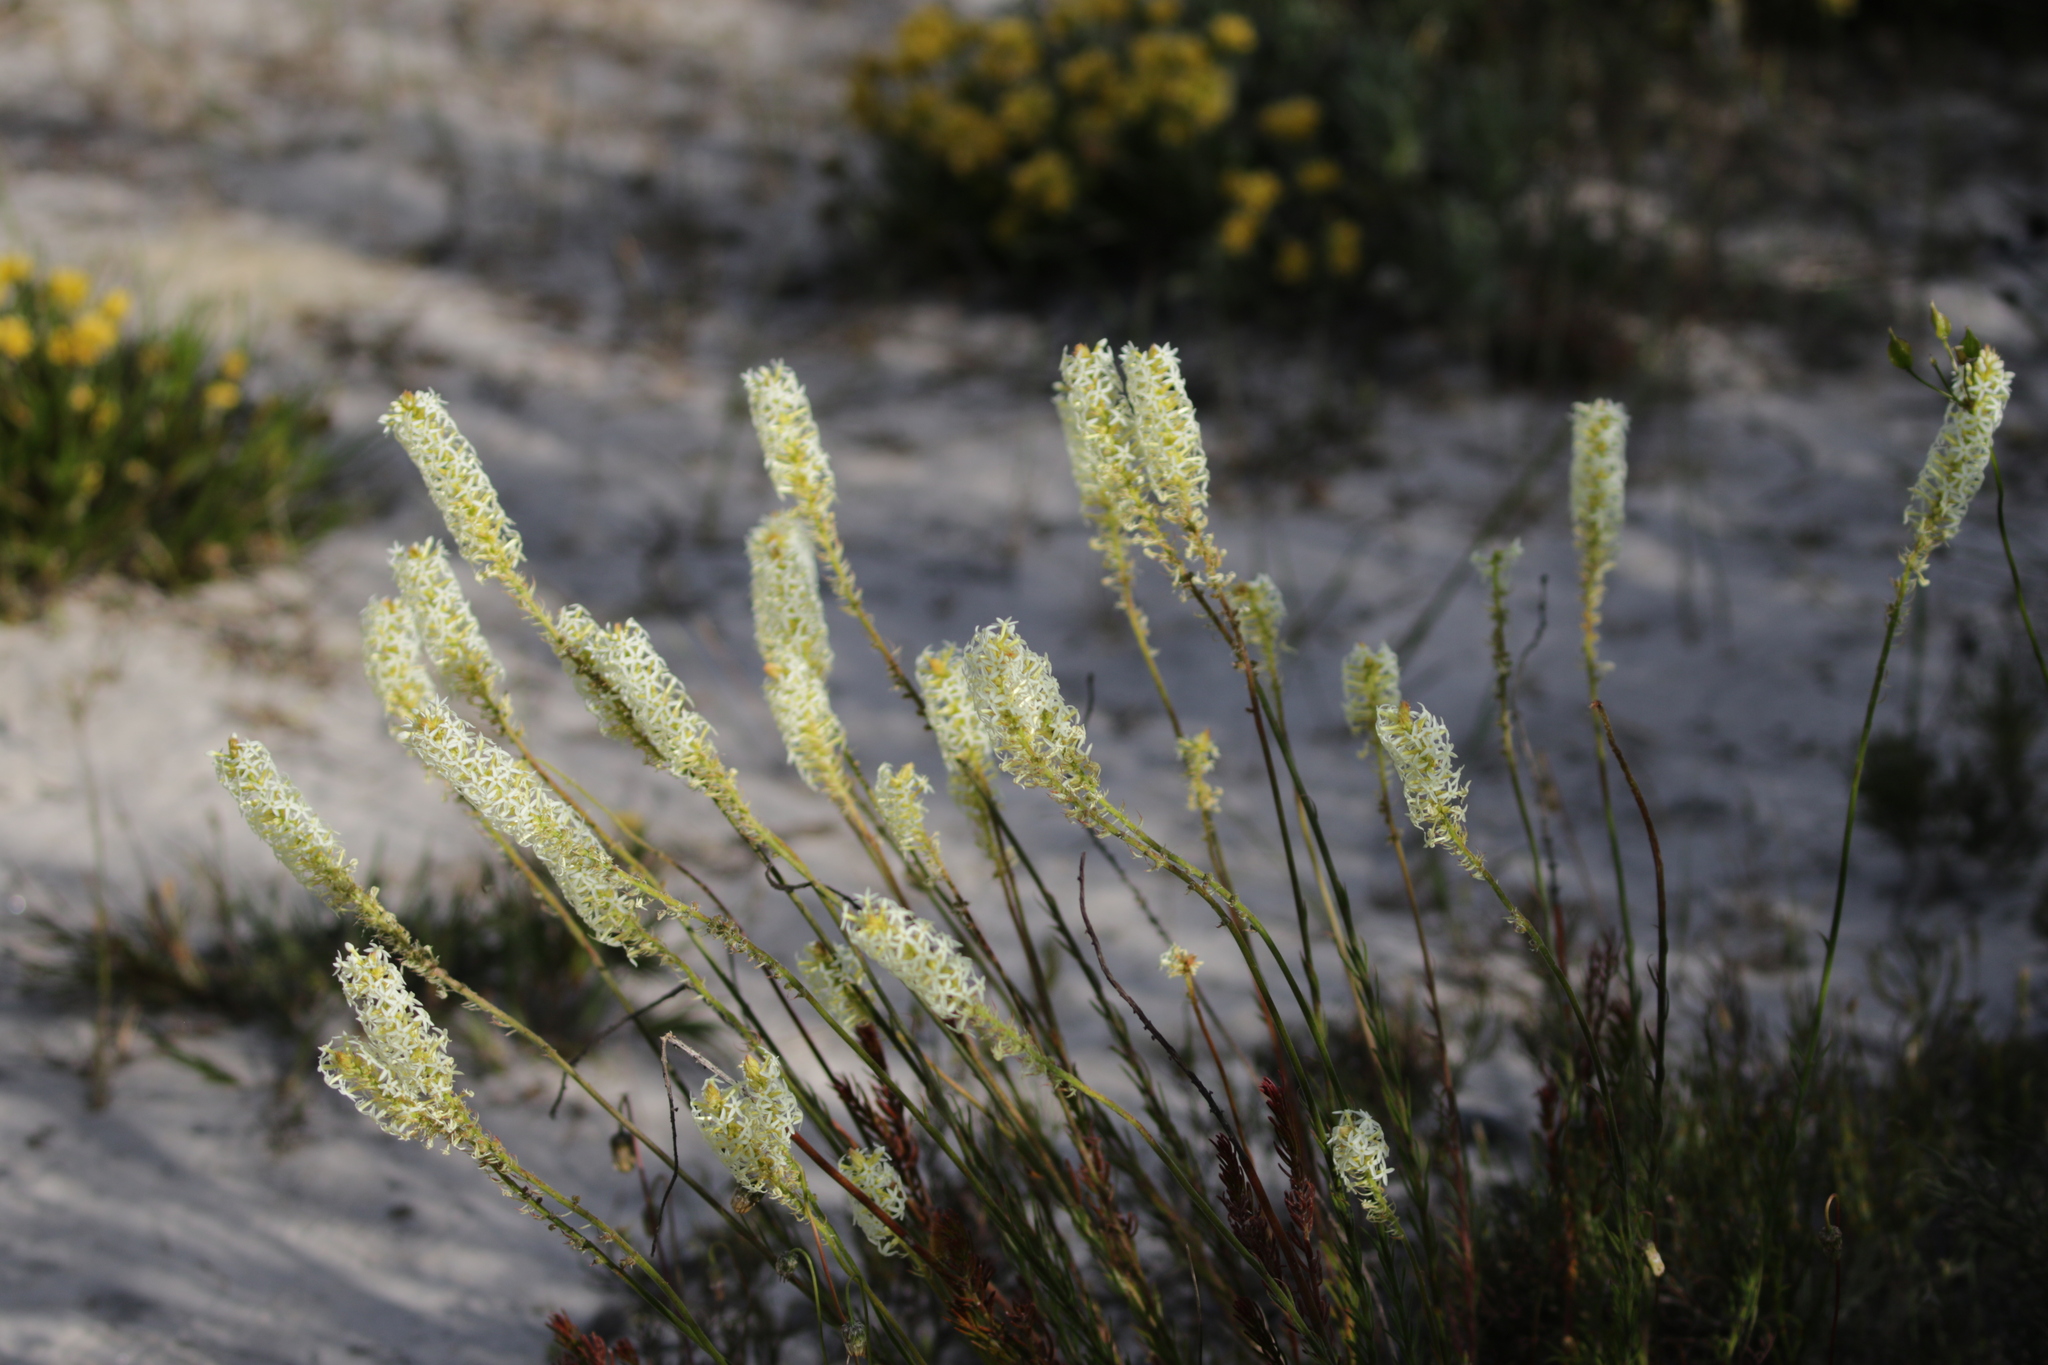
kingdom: Plantae
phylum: Tracheophyta
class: Magnoliopsida
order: Celastrales
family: Celastraceae
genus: Stackhousia
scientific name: Stackhousia monogyna
